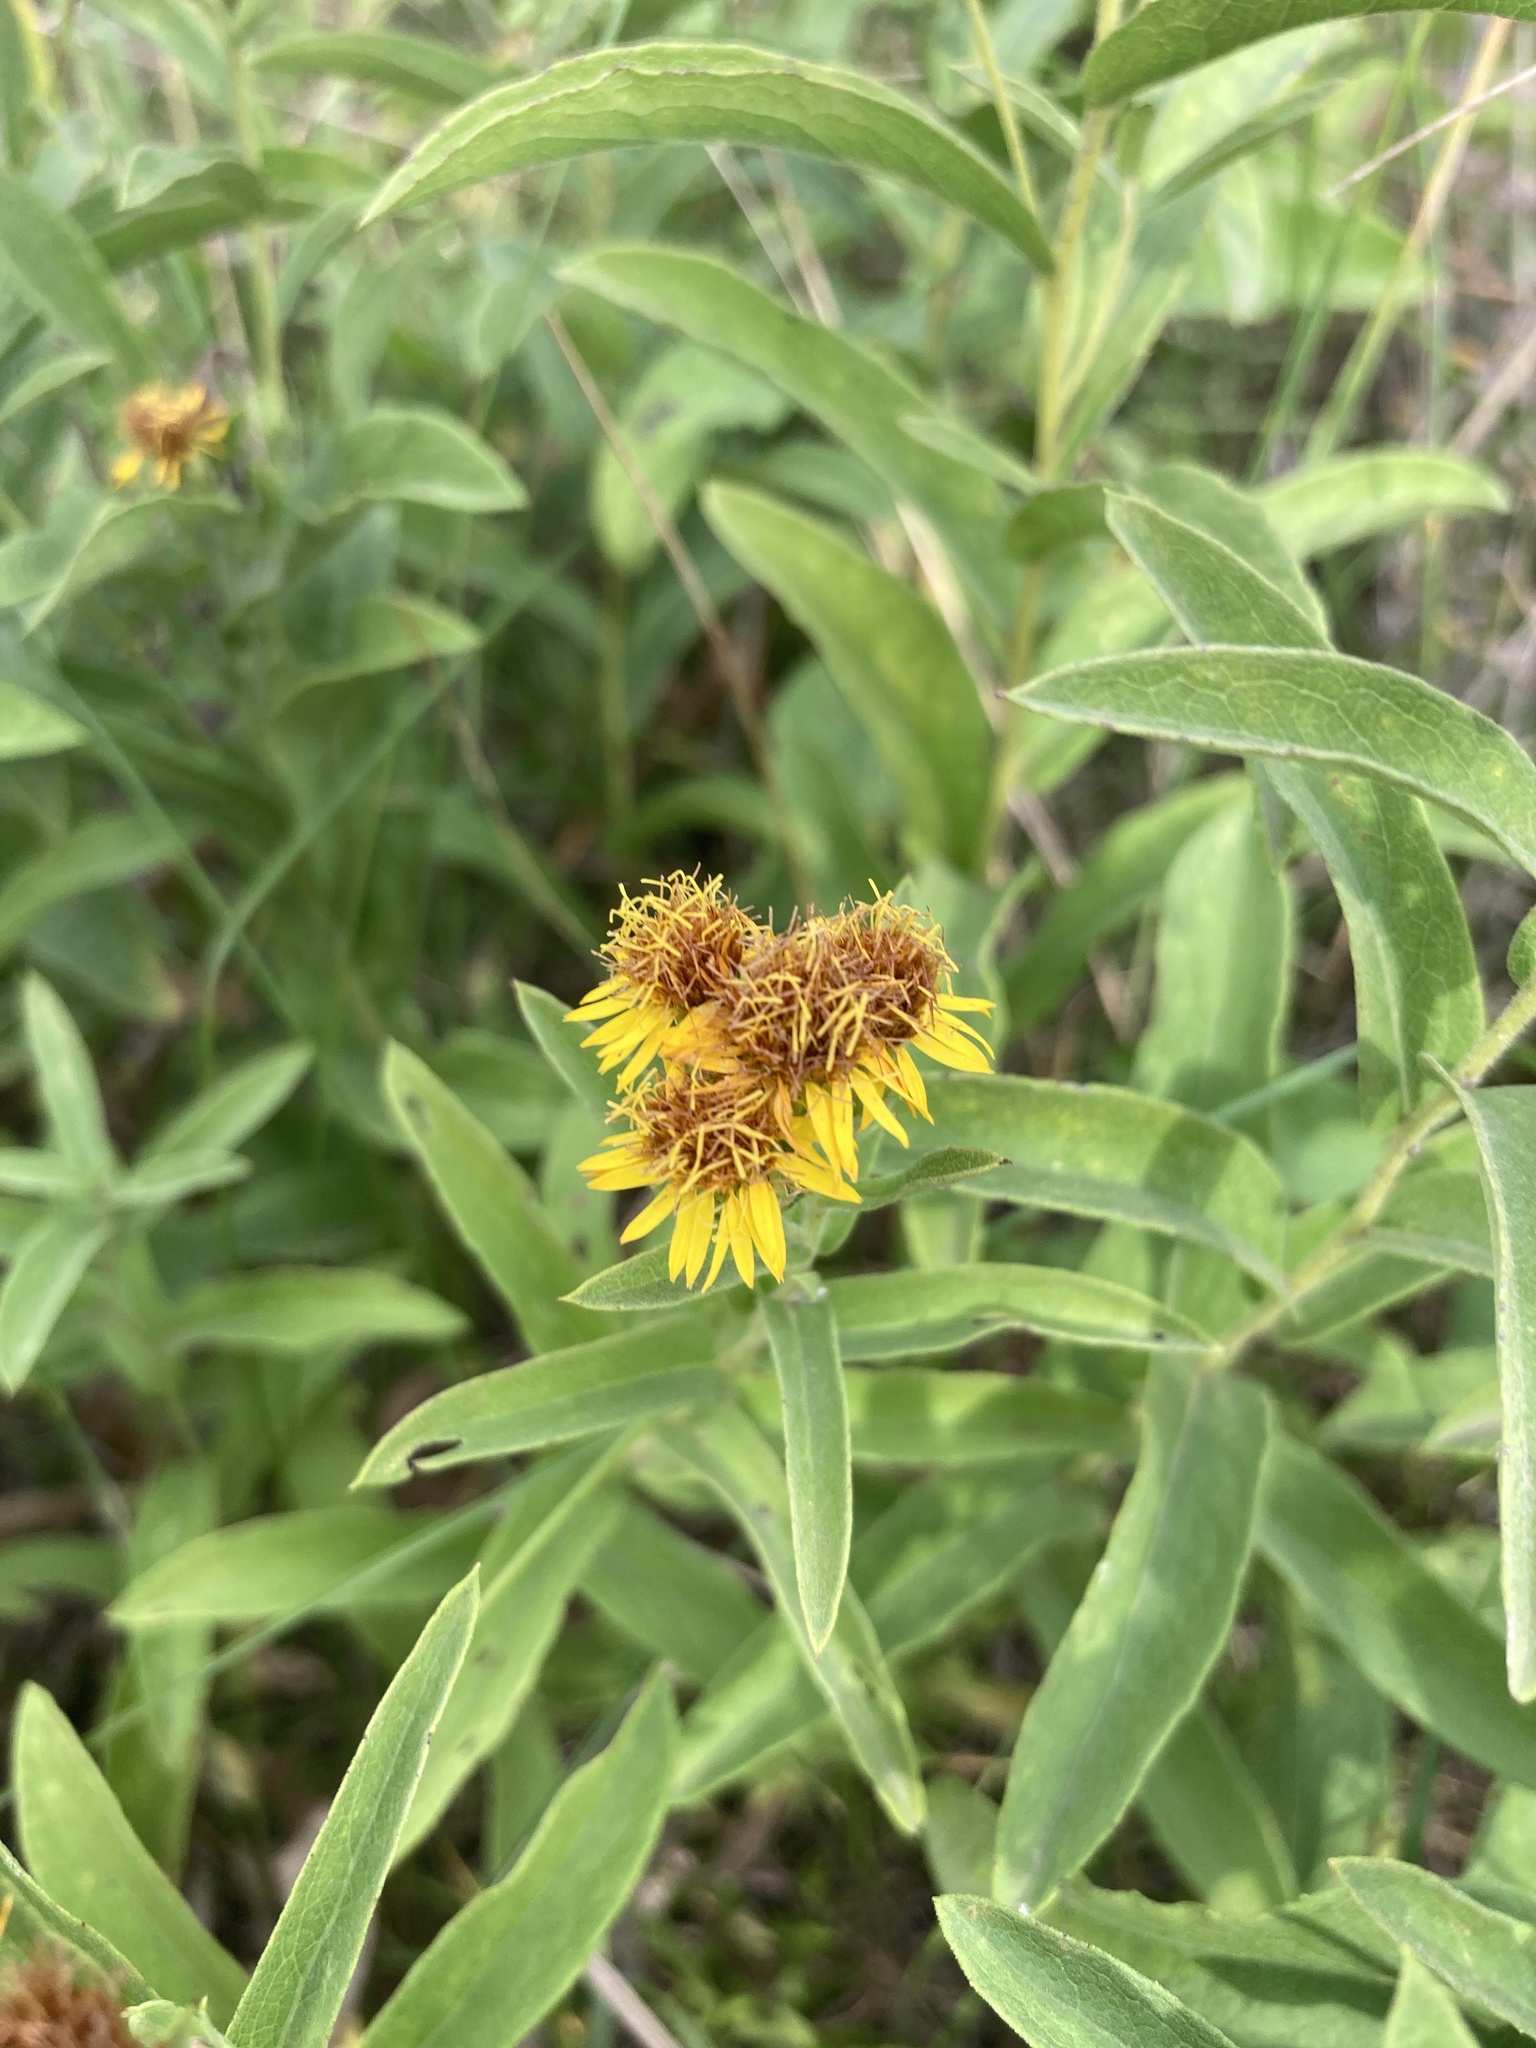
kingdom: Plantae
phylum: Tracheophyta
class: Magnoliopsida
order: Asterales
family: Asteraceae
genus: Pentanema
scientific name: Pentanema germanicum
